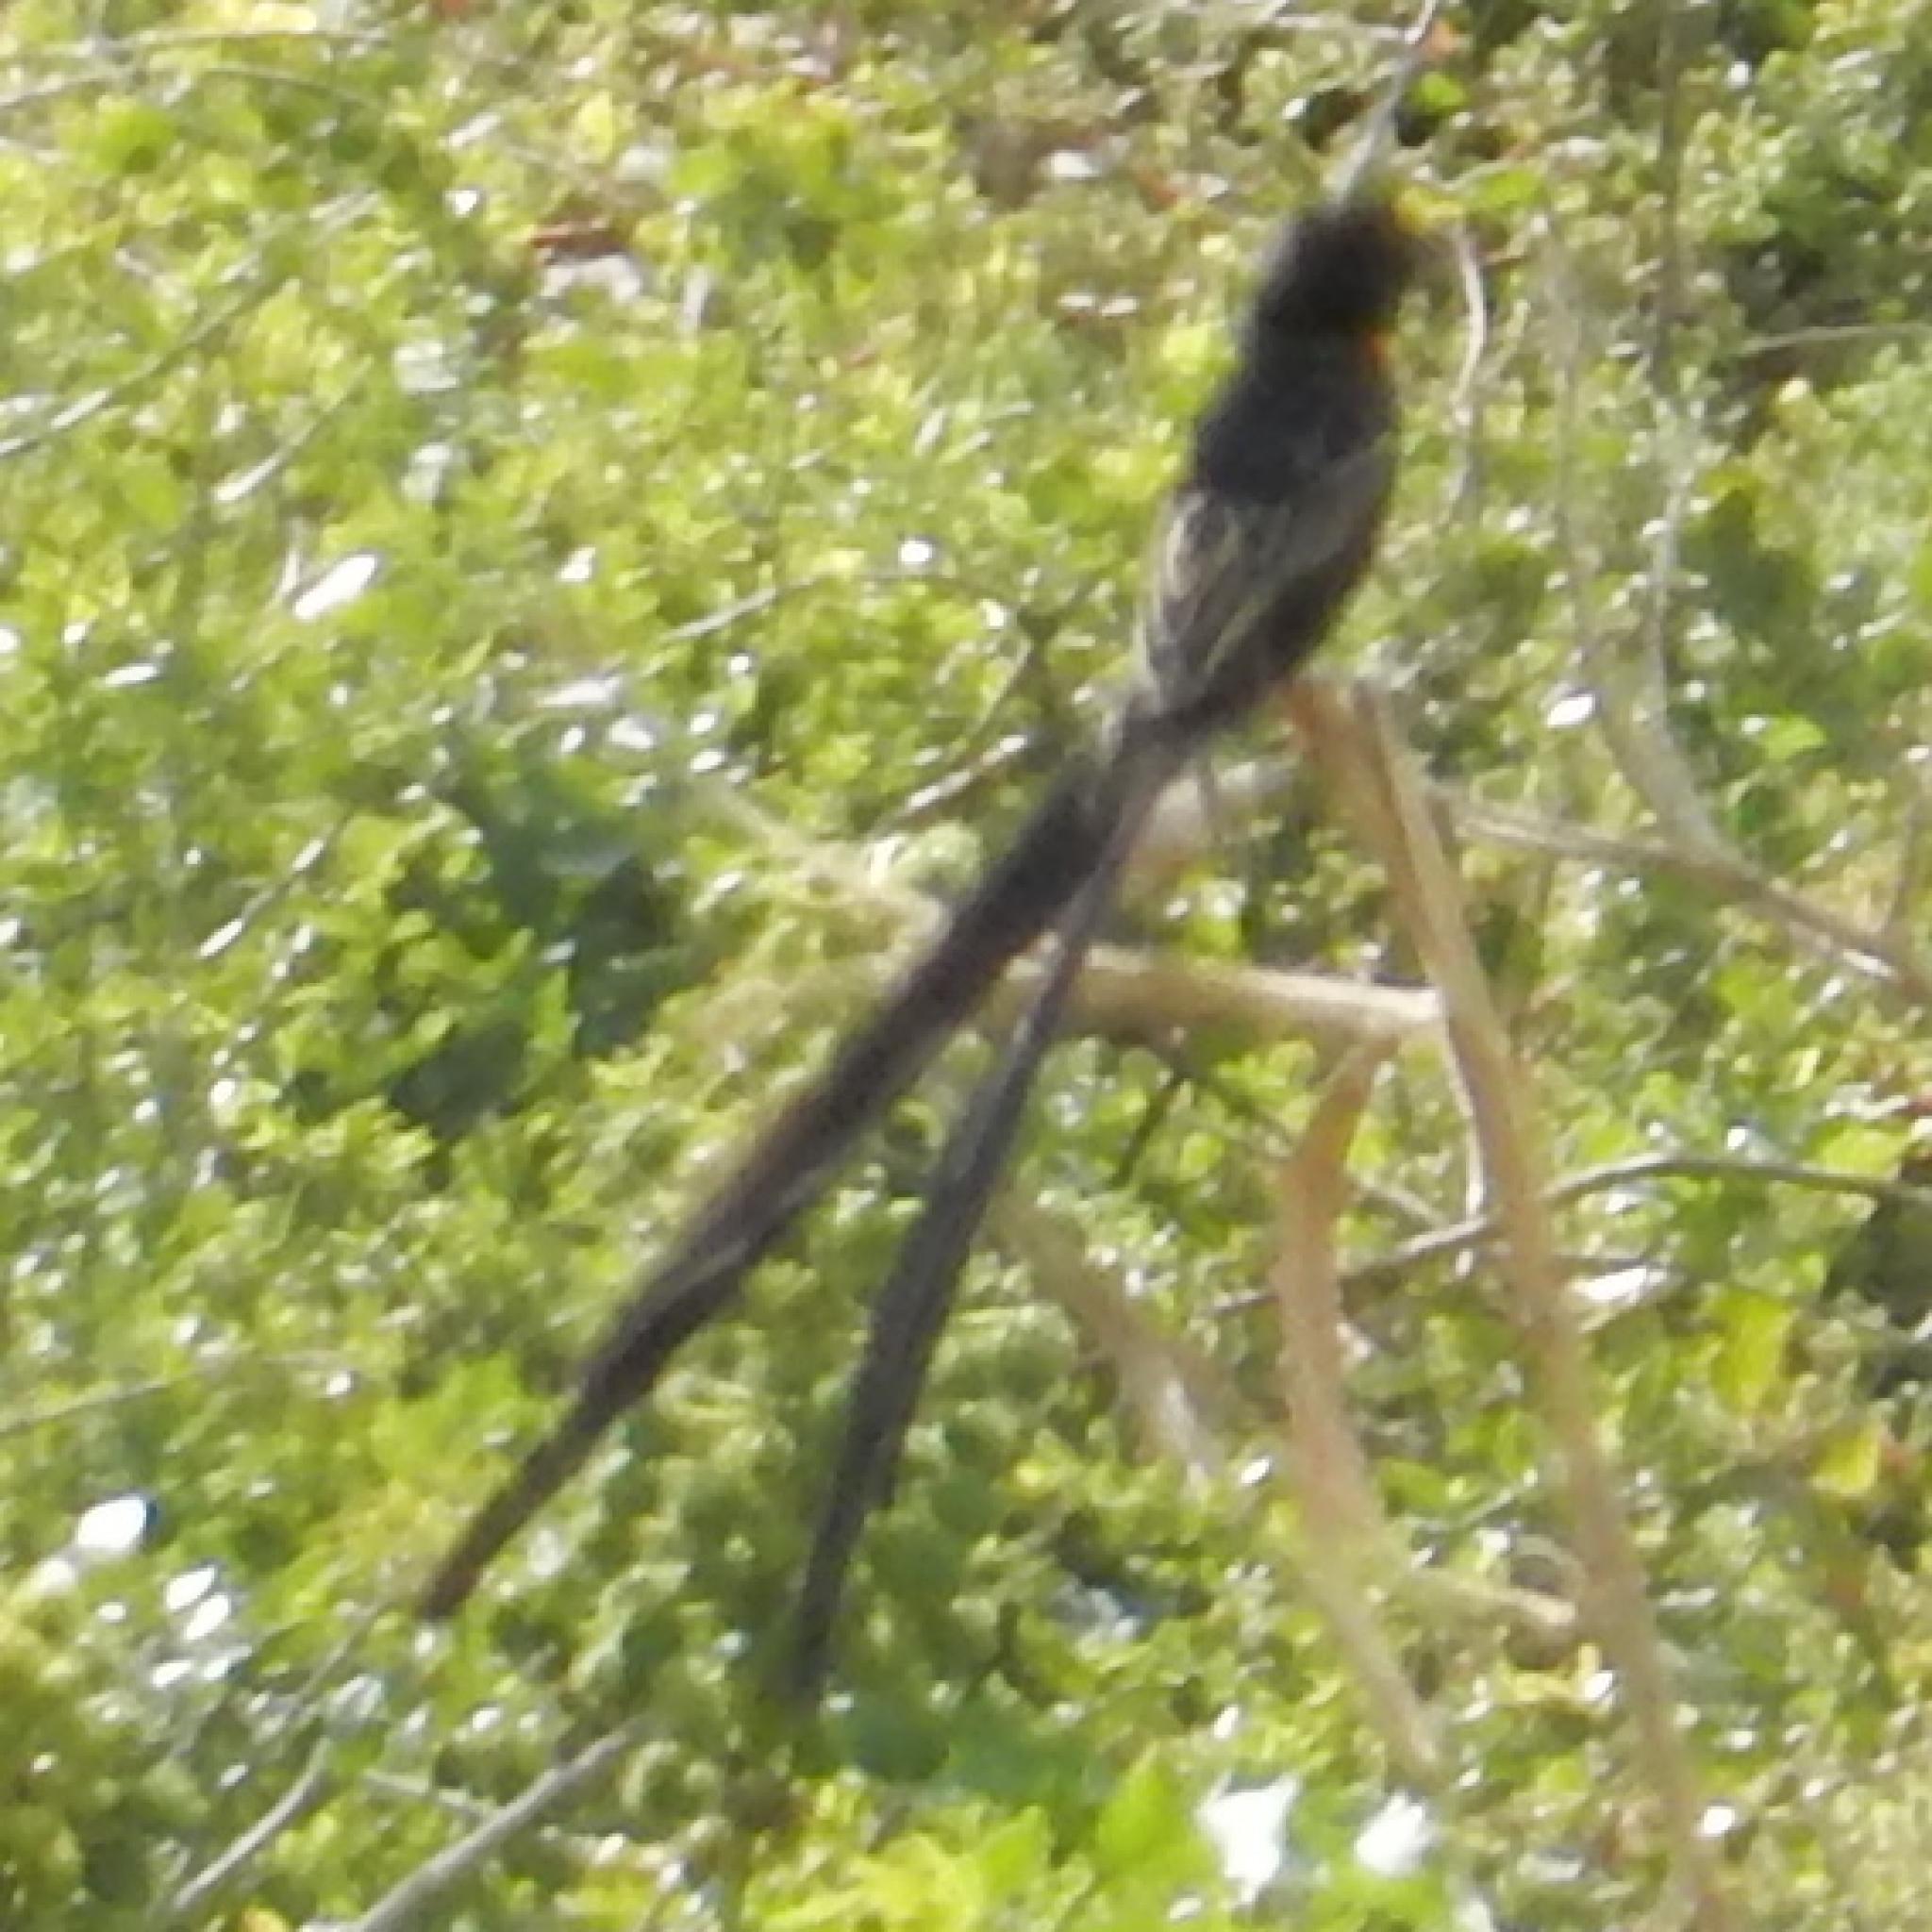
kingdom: Animalia
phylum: Chordata
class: Aves
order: Passeriformes
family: Ploceidae
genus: Euplectes
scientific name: Euplectes ardens
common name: Red-collared widowbird
